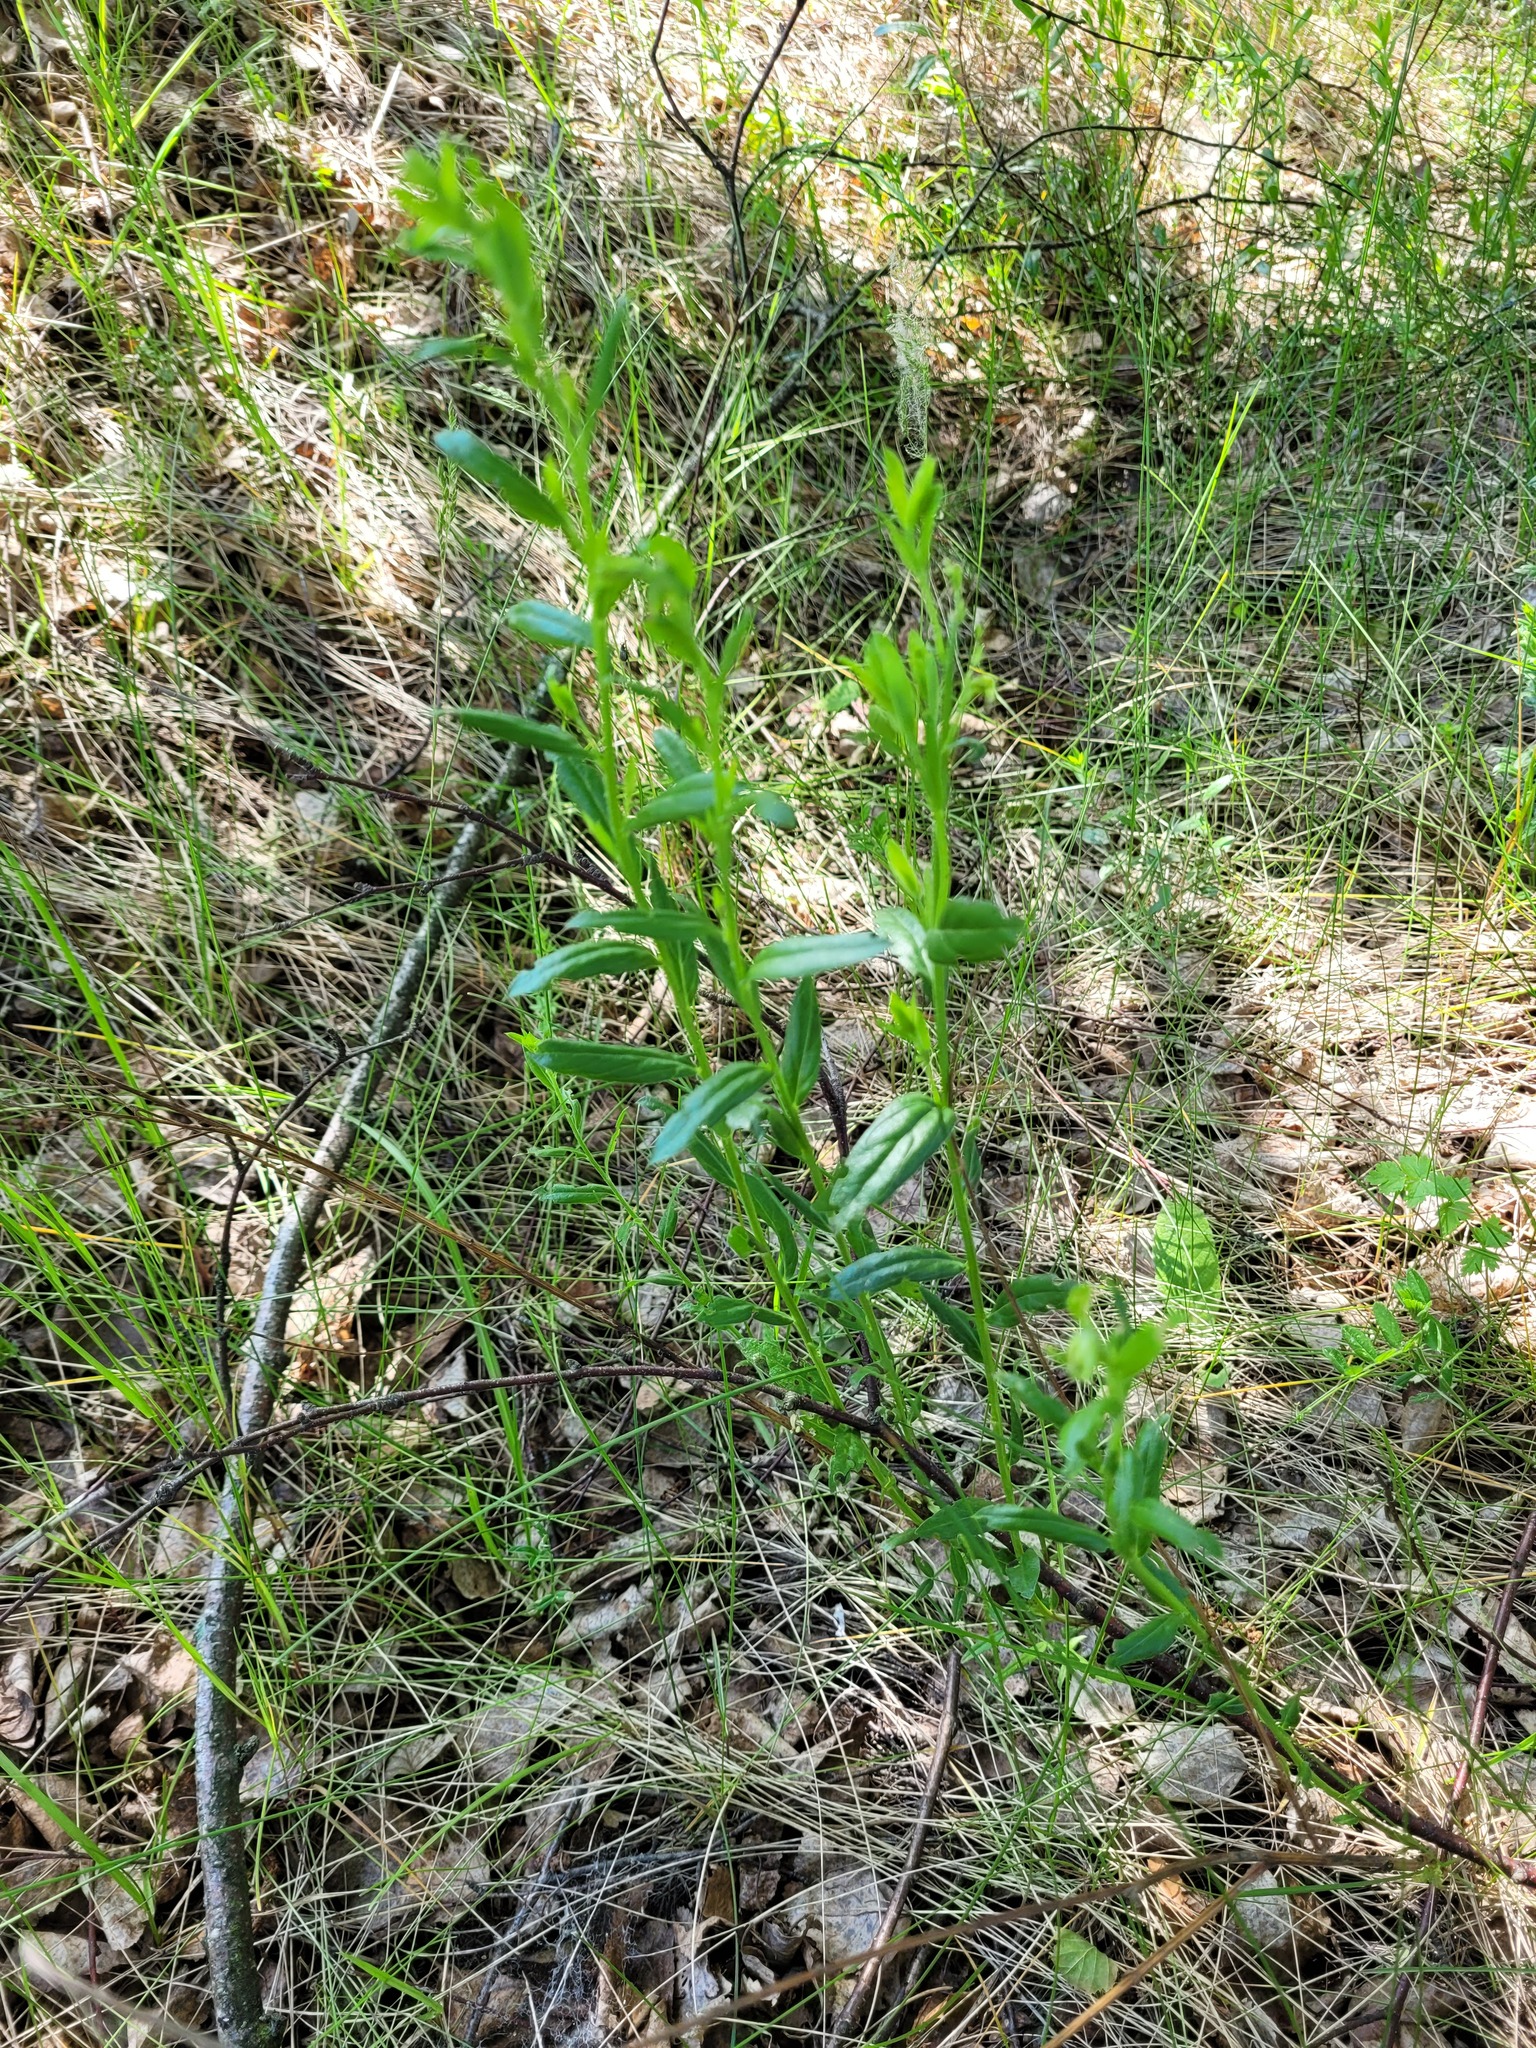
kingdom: Plantae
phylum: Tracheophyta
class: Magnoliopsida
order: Fabales
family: Fabaceae
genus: Genista
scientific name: Genista tinctoria
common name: Dyer's greenweed
